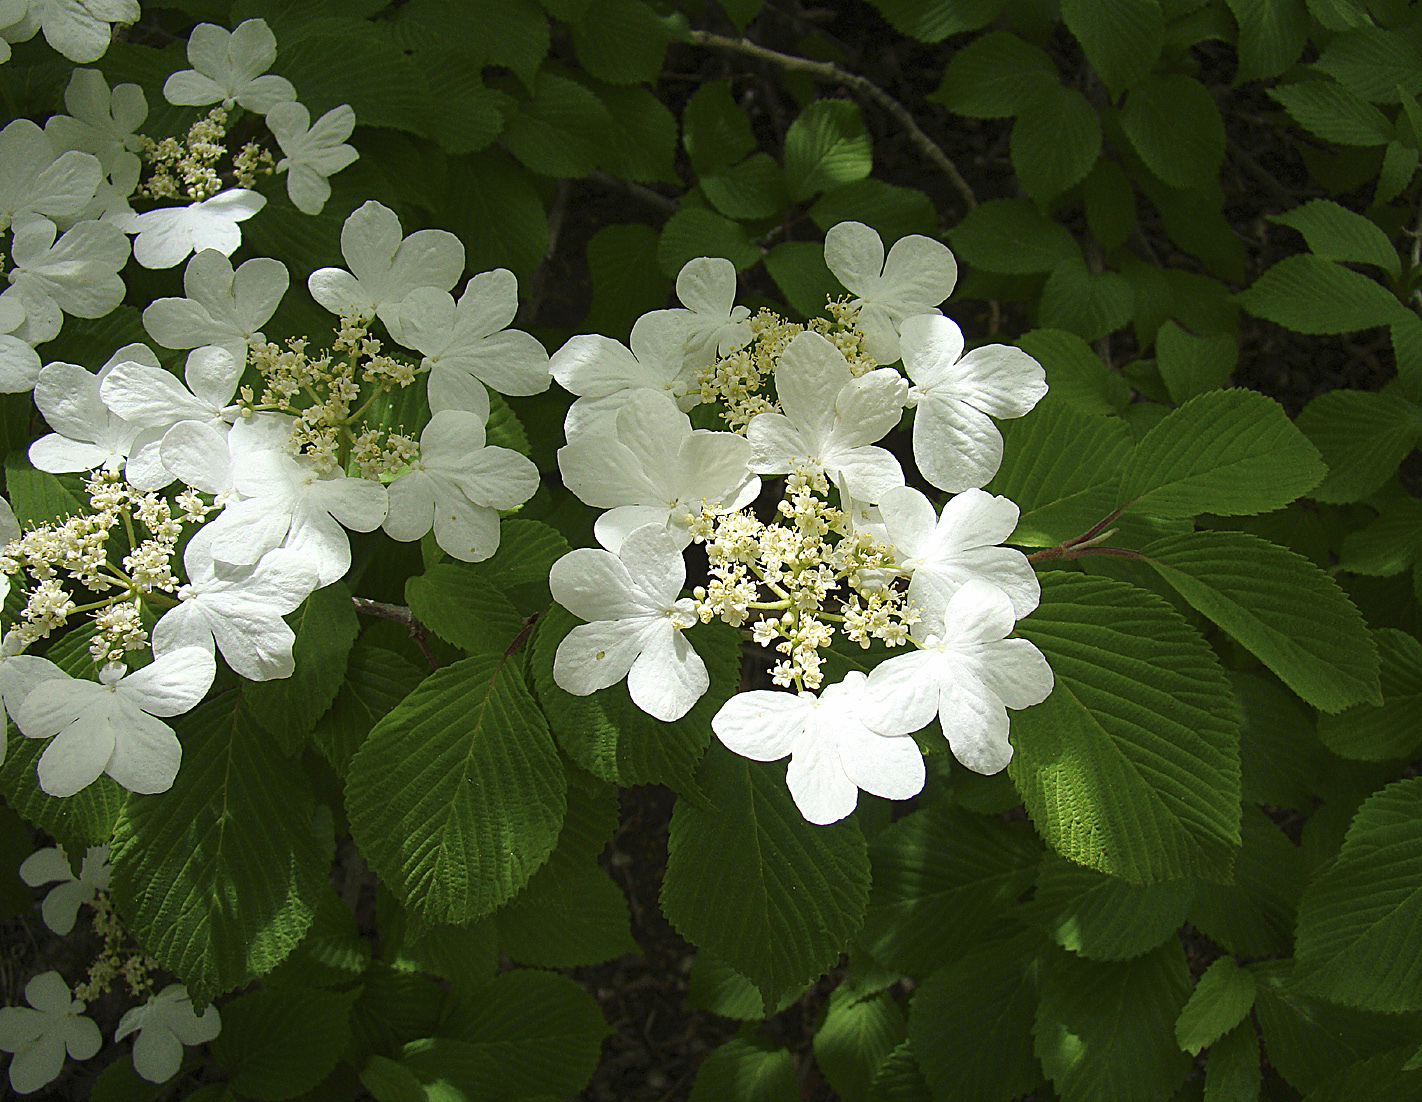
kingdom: Plantae
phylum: Tracheophyta
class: Magnoliopsida
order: Dipsacales
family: Viburnaceae
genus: Viburnum
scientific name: Viburnum plicatum
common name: Japanese snowball
